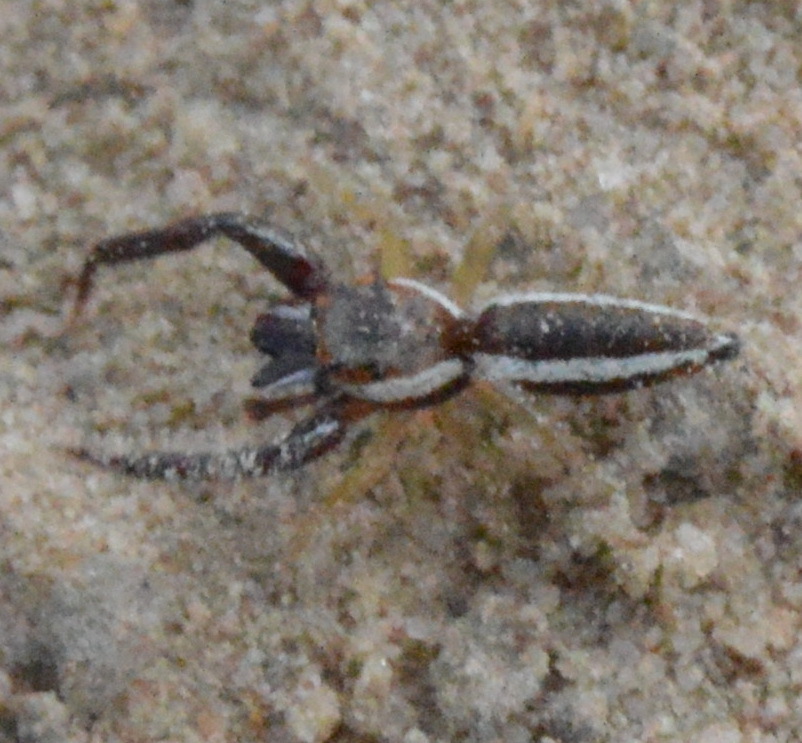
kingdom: Animalia
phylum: Arthropoda
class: Arachnida
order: Araneae
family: Salticidae
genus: Hentzia
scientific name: Hentzia palmarum
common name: Common hentz jumping spider
